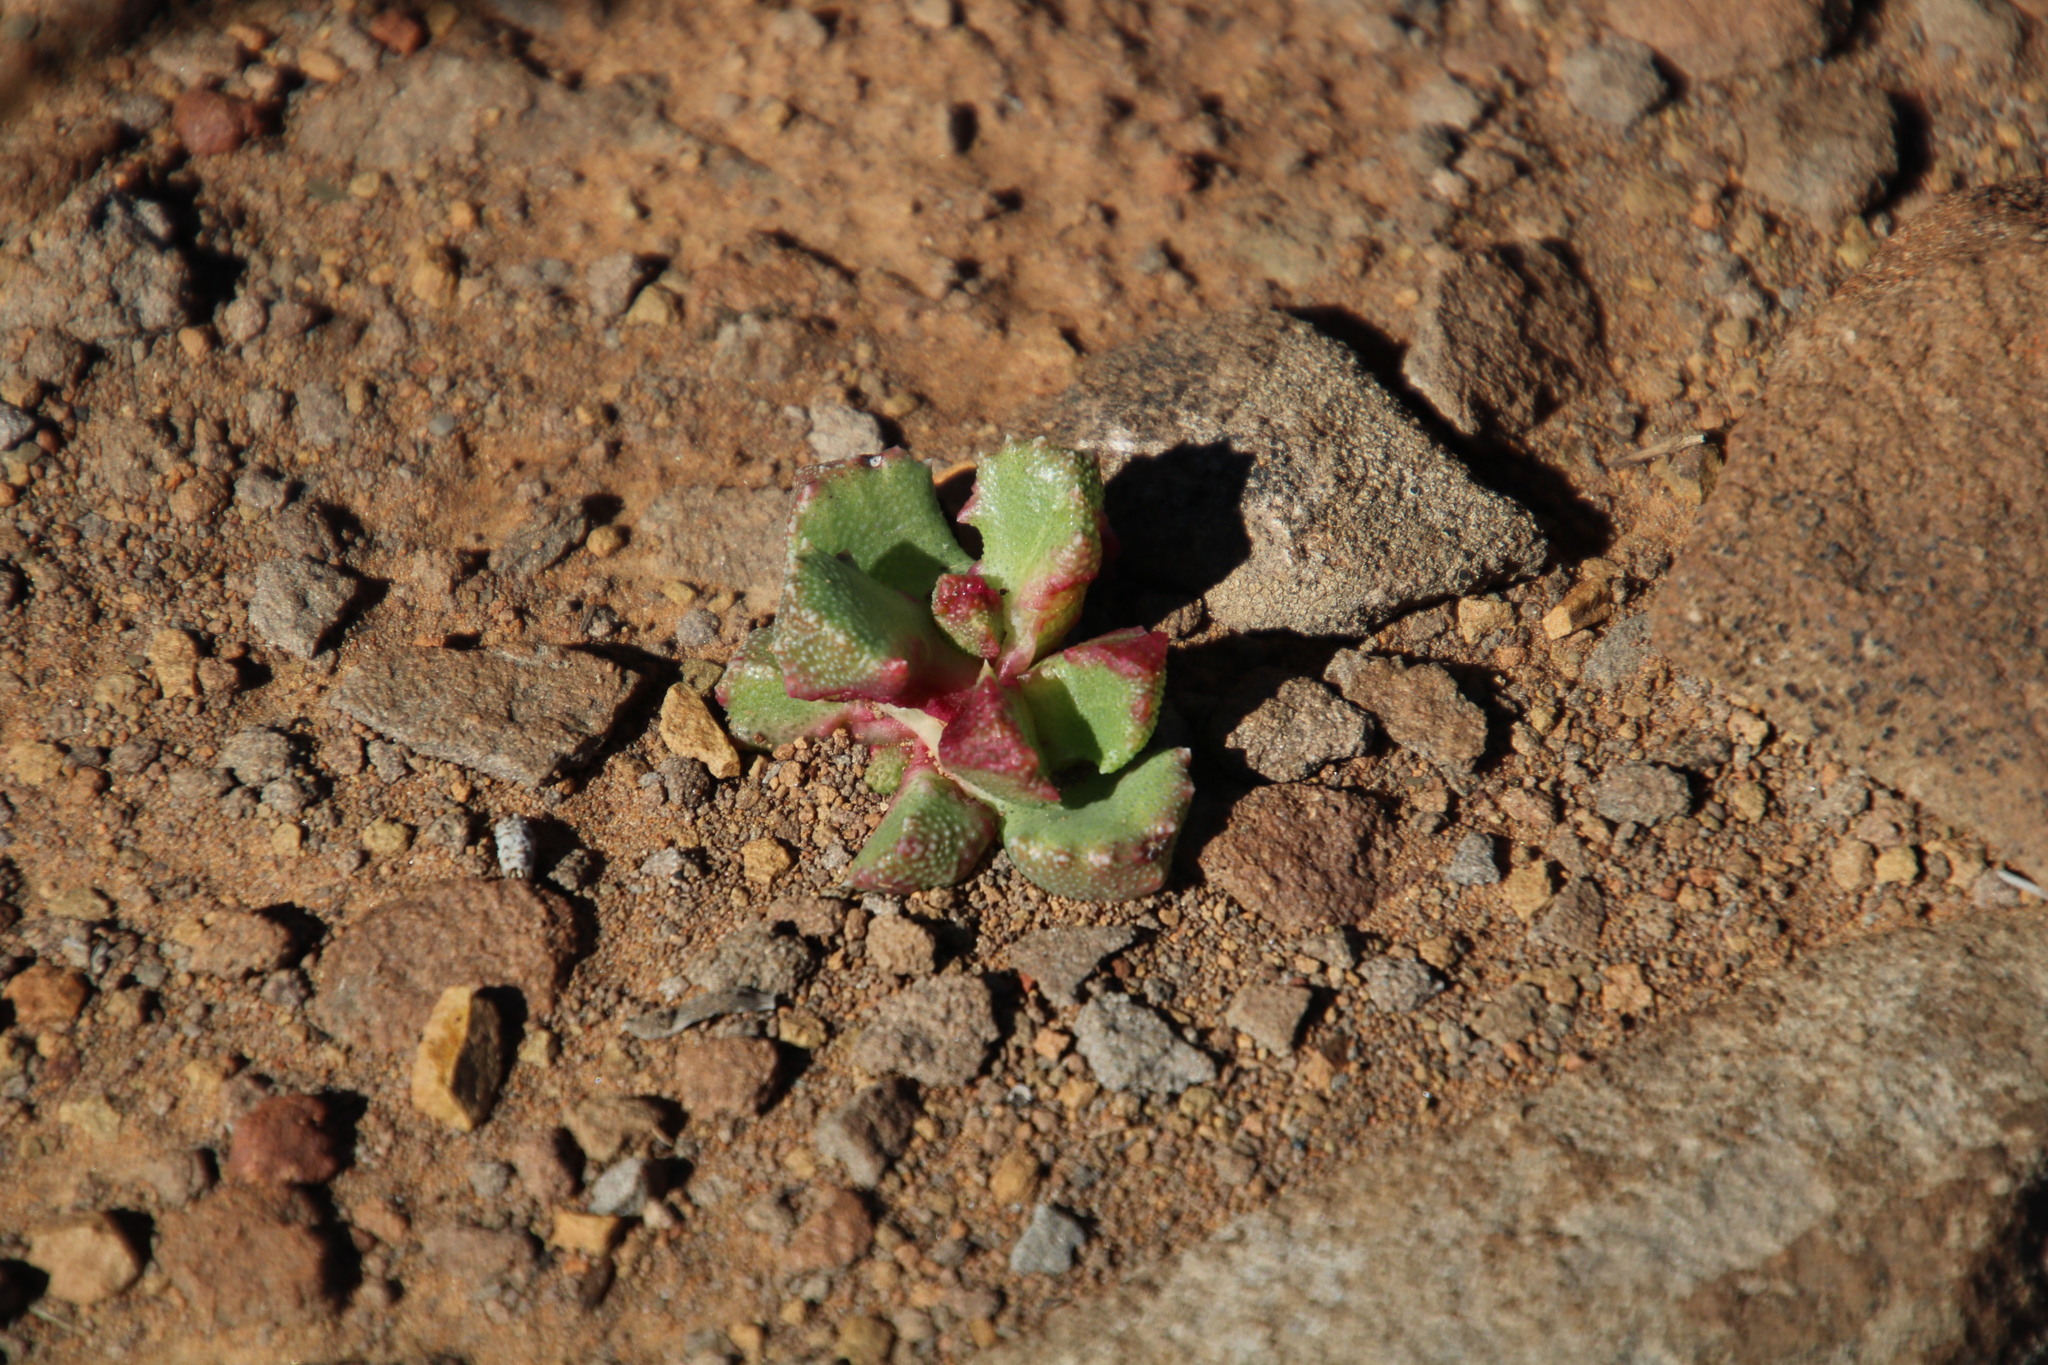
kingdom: Plantae
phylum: Tracheophyta
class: Magnoliopsida
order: Caryophyllales
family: Aizoaceae
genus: Stomatium
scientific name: Stomatium viride
